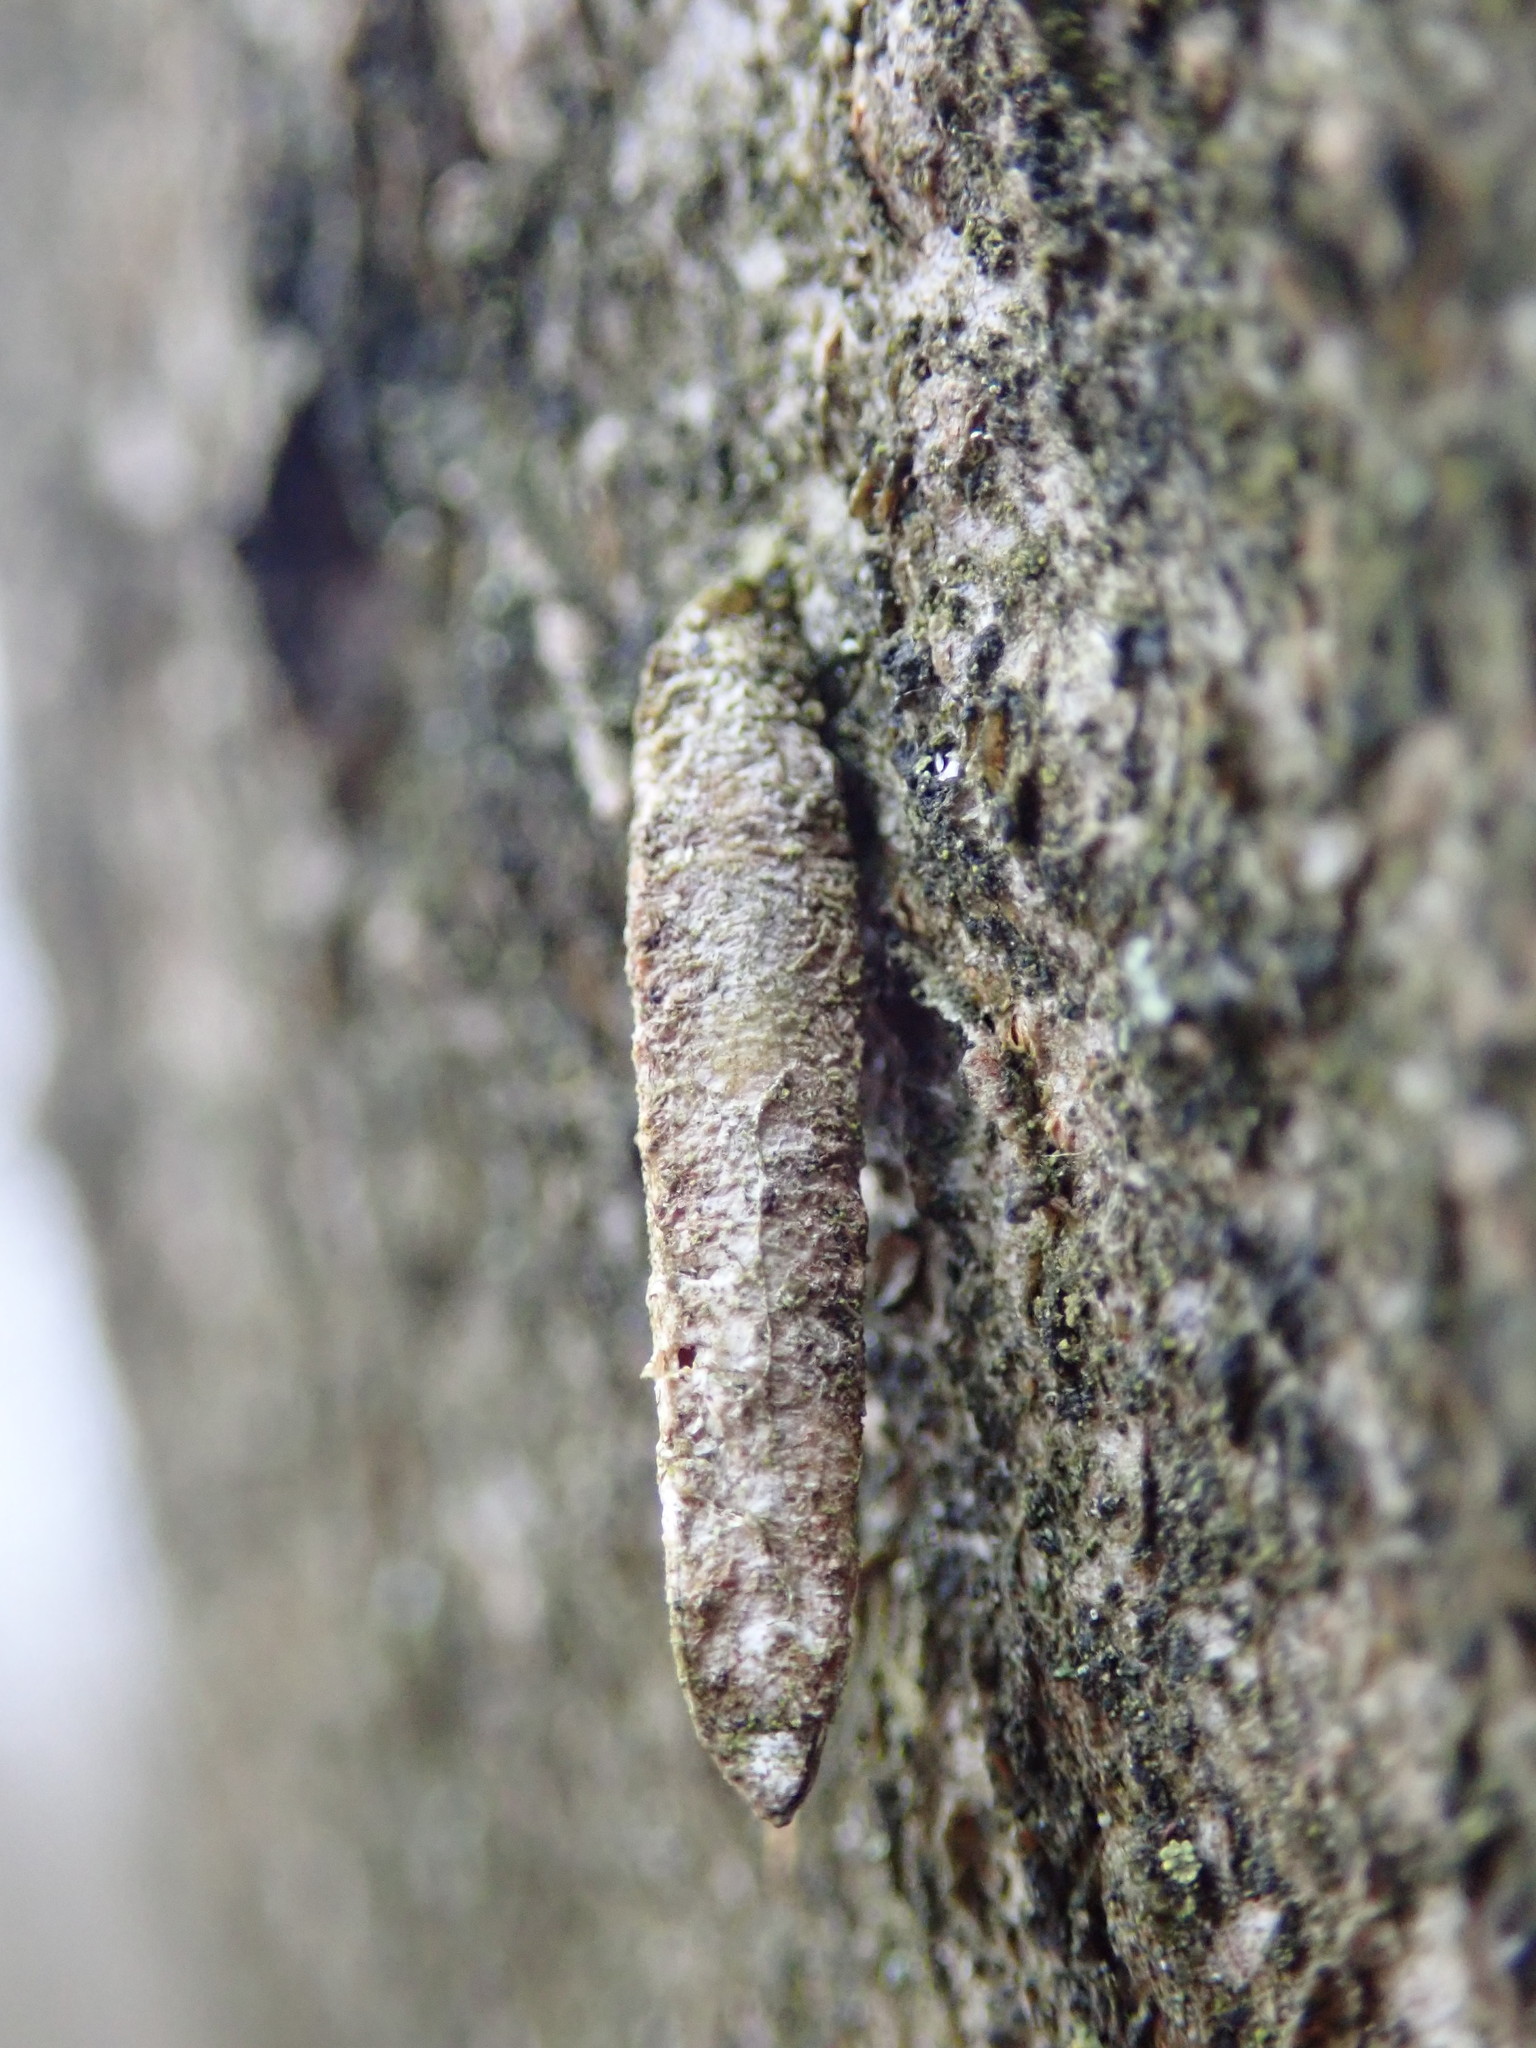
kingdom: Animalia
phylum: Arthropoda
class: Insecta
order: Lepidoptera
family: Psychidae
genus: Taleporia
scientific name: Taleporia tubulosa
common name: Brown smoke
